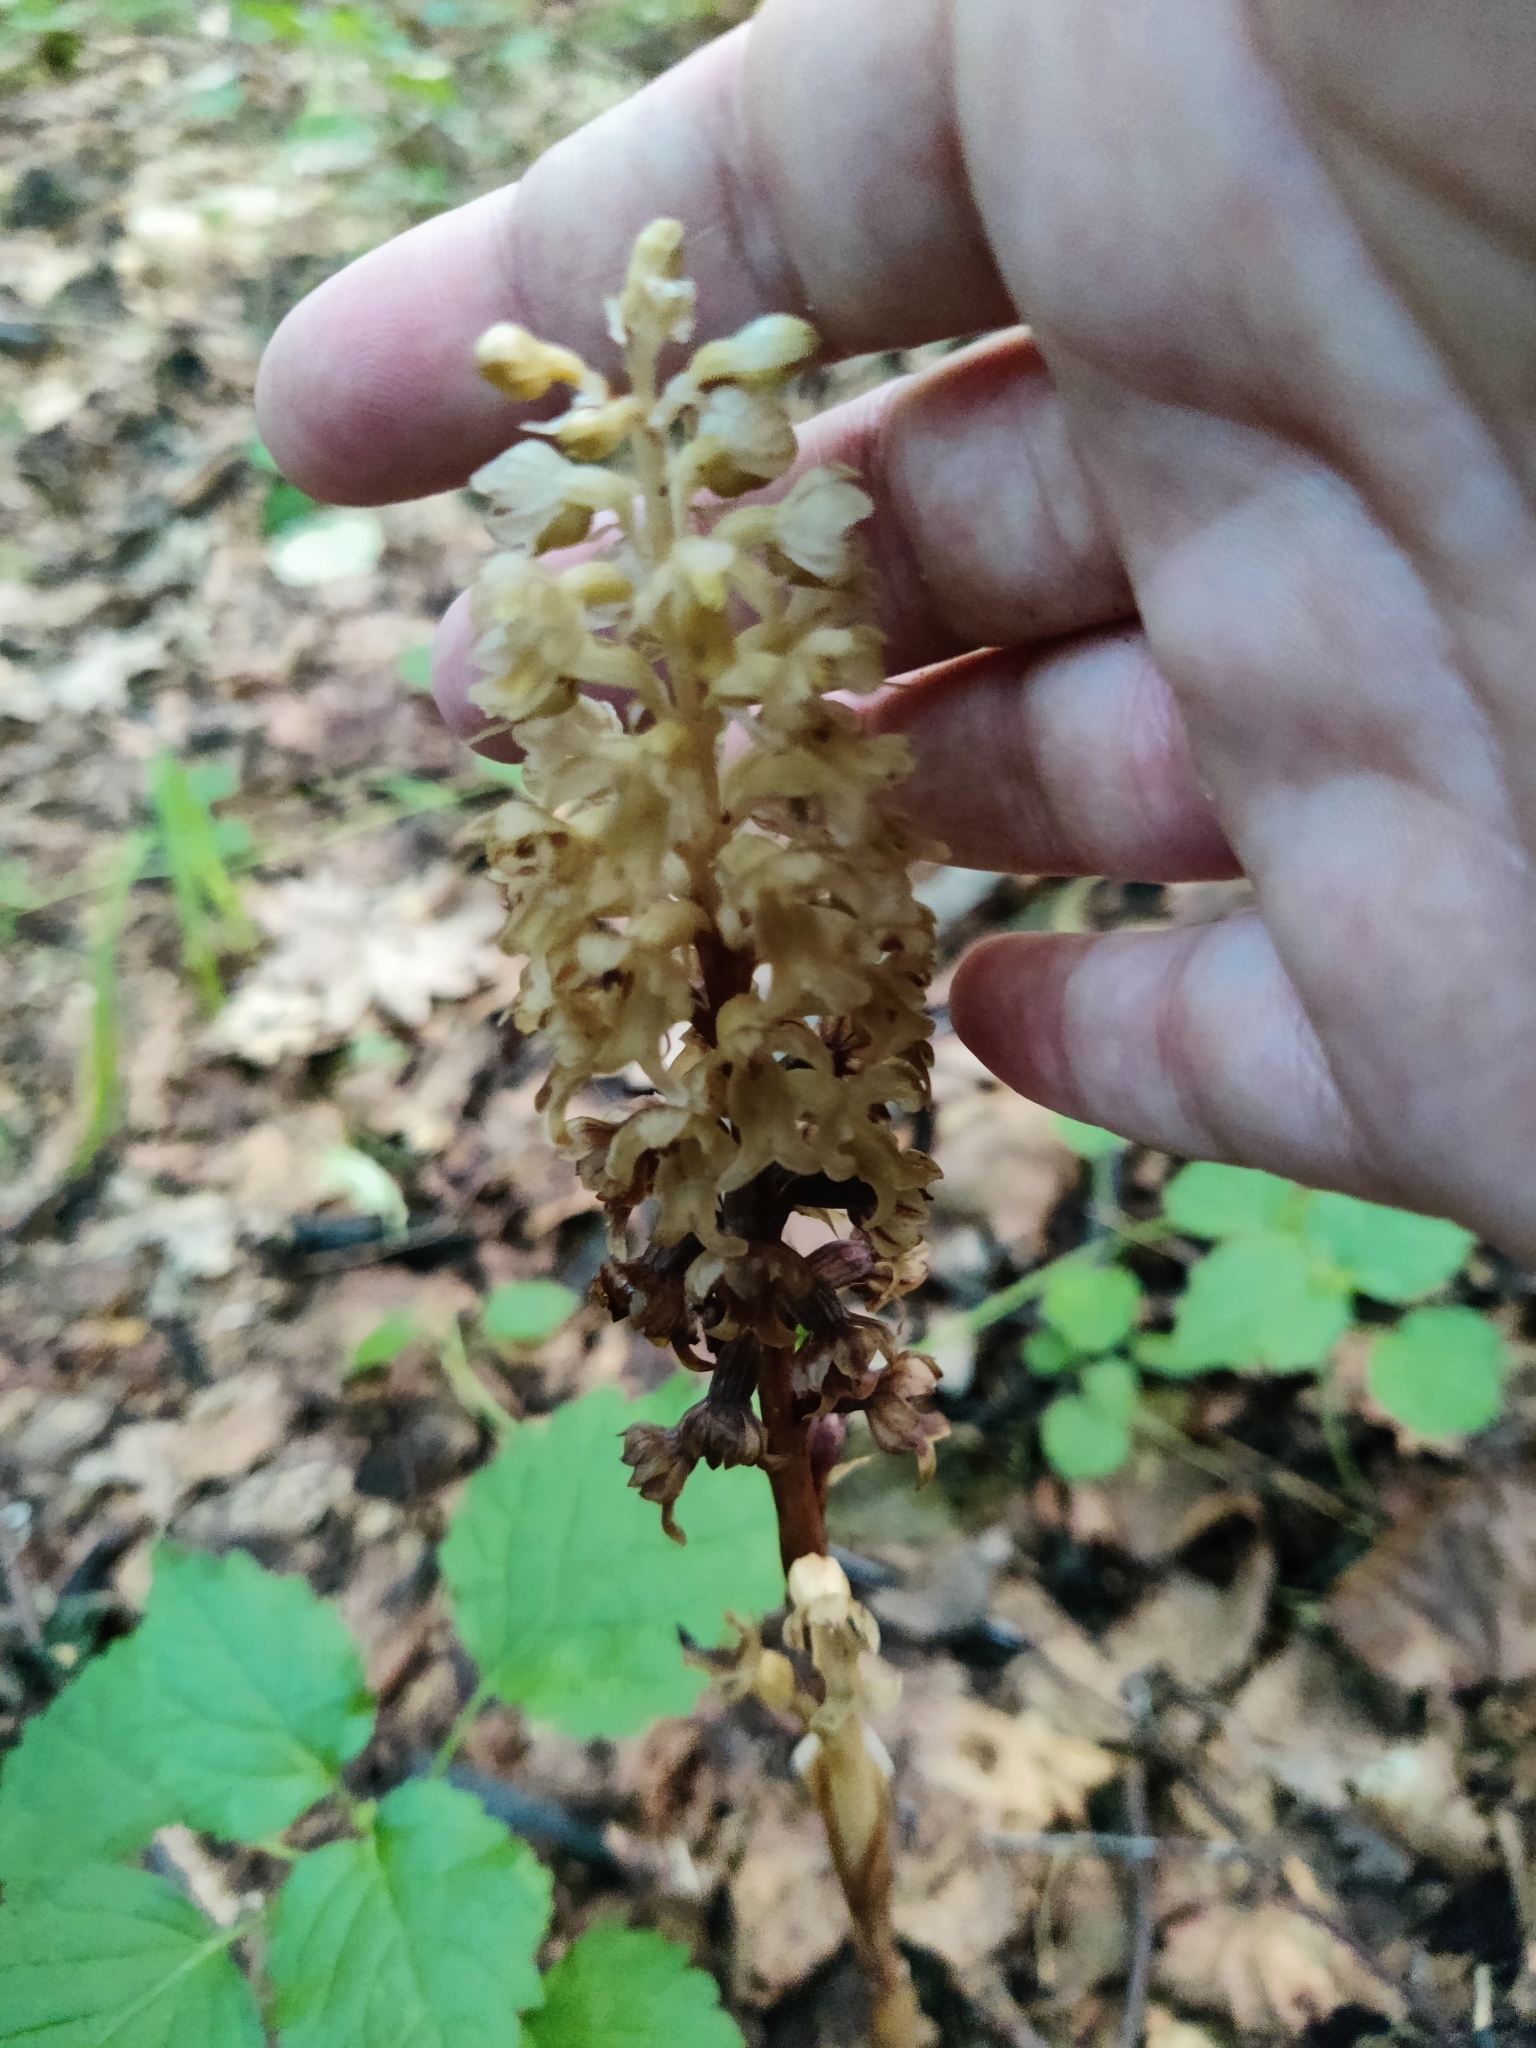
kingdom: Plantae
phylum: Tracheophyta
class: Liliopsida
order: Asparagales
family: Orchidaceae
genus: Neottia
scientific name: Neottia nidus-avis
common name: Bird's-nest orchid
